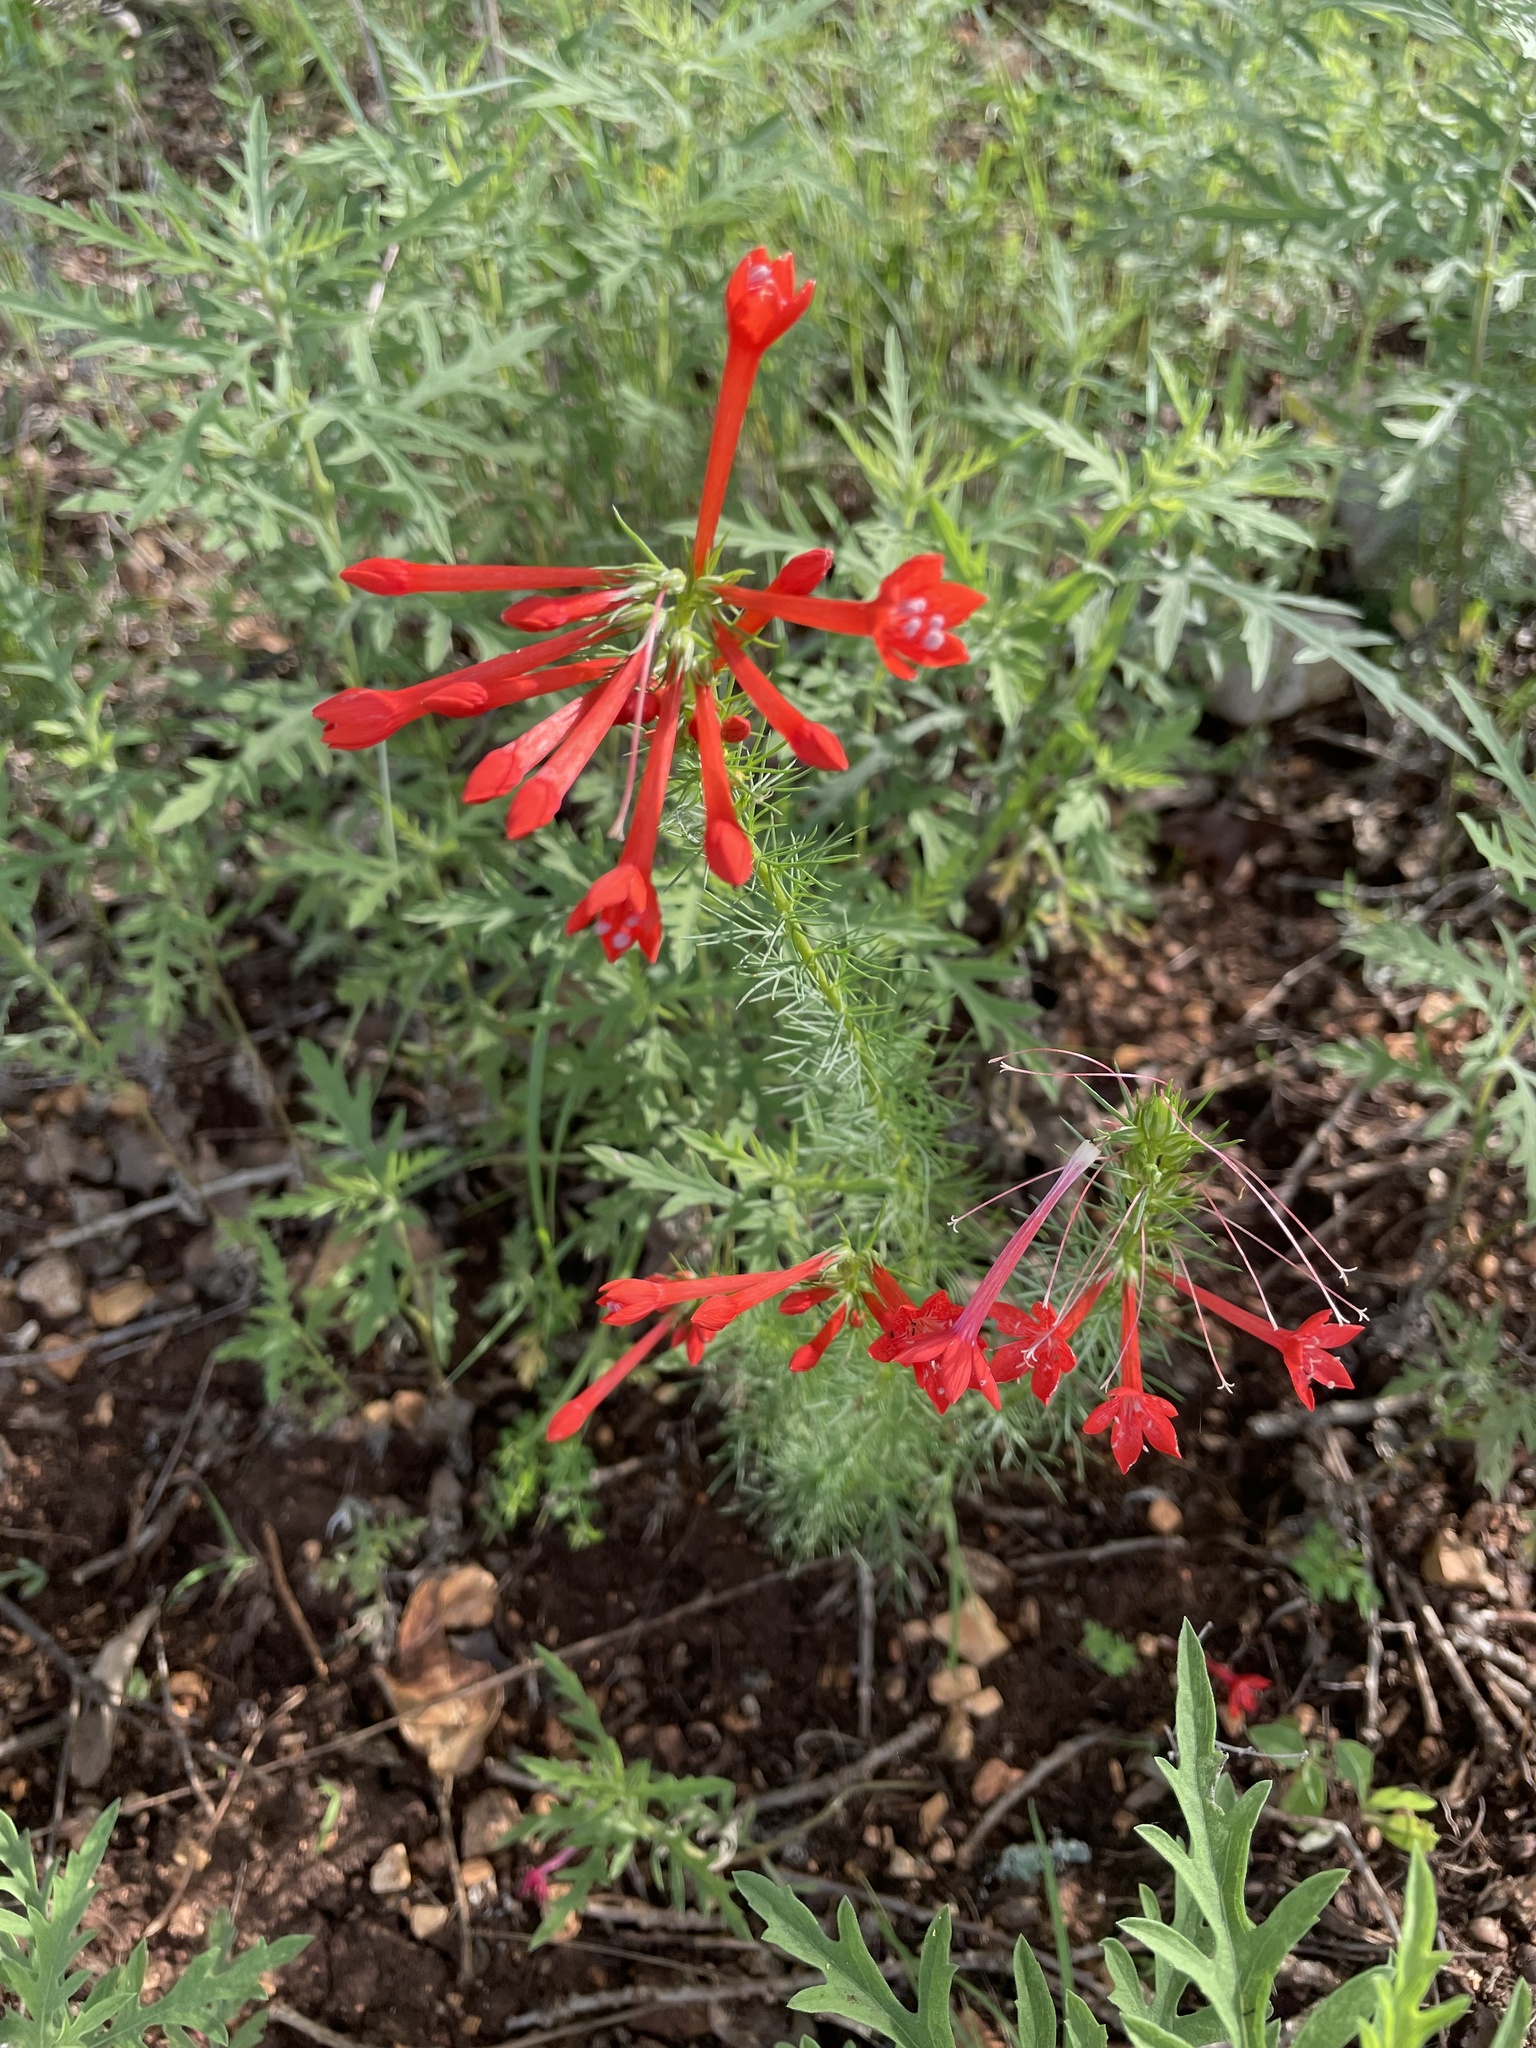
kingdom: Plantae
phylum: Tracheophyta
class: Magnoliopsida
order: Ericales
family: Polemoniaceae
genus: Ipomopsis
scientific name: Ipomopsis rubra
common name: Skyrocket
